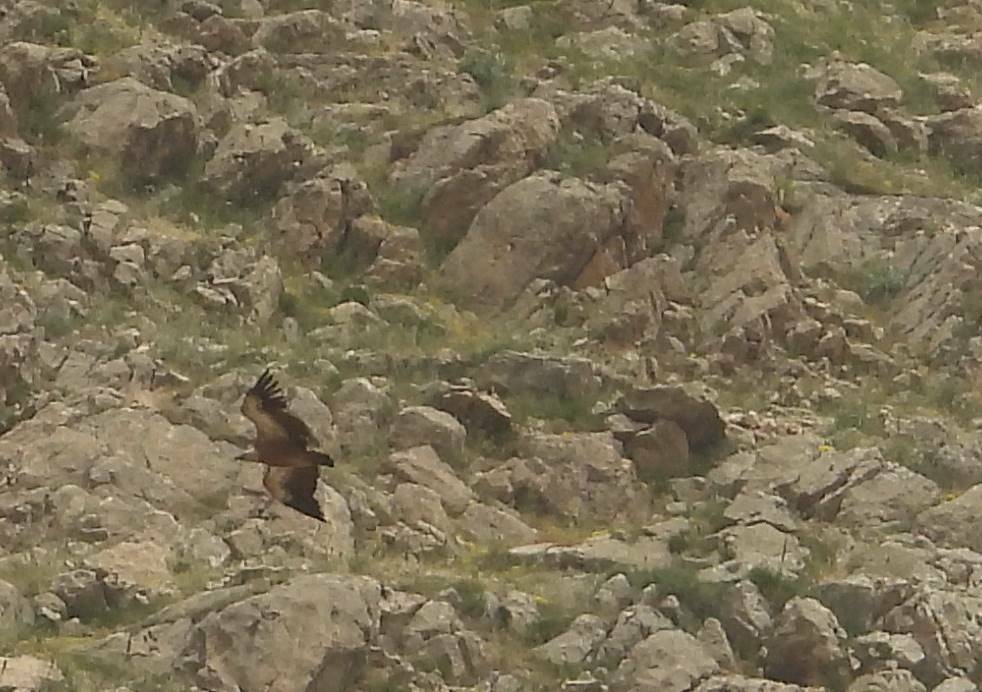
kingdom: Animalia
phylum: Chordata
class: Aves
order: Accipitriformes
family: Accipitridae
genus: Gyps
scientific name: Gyps fulvus
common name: Griffon vulture
